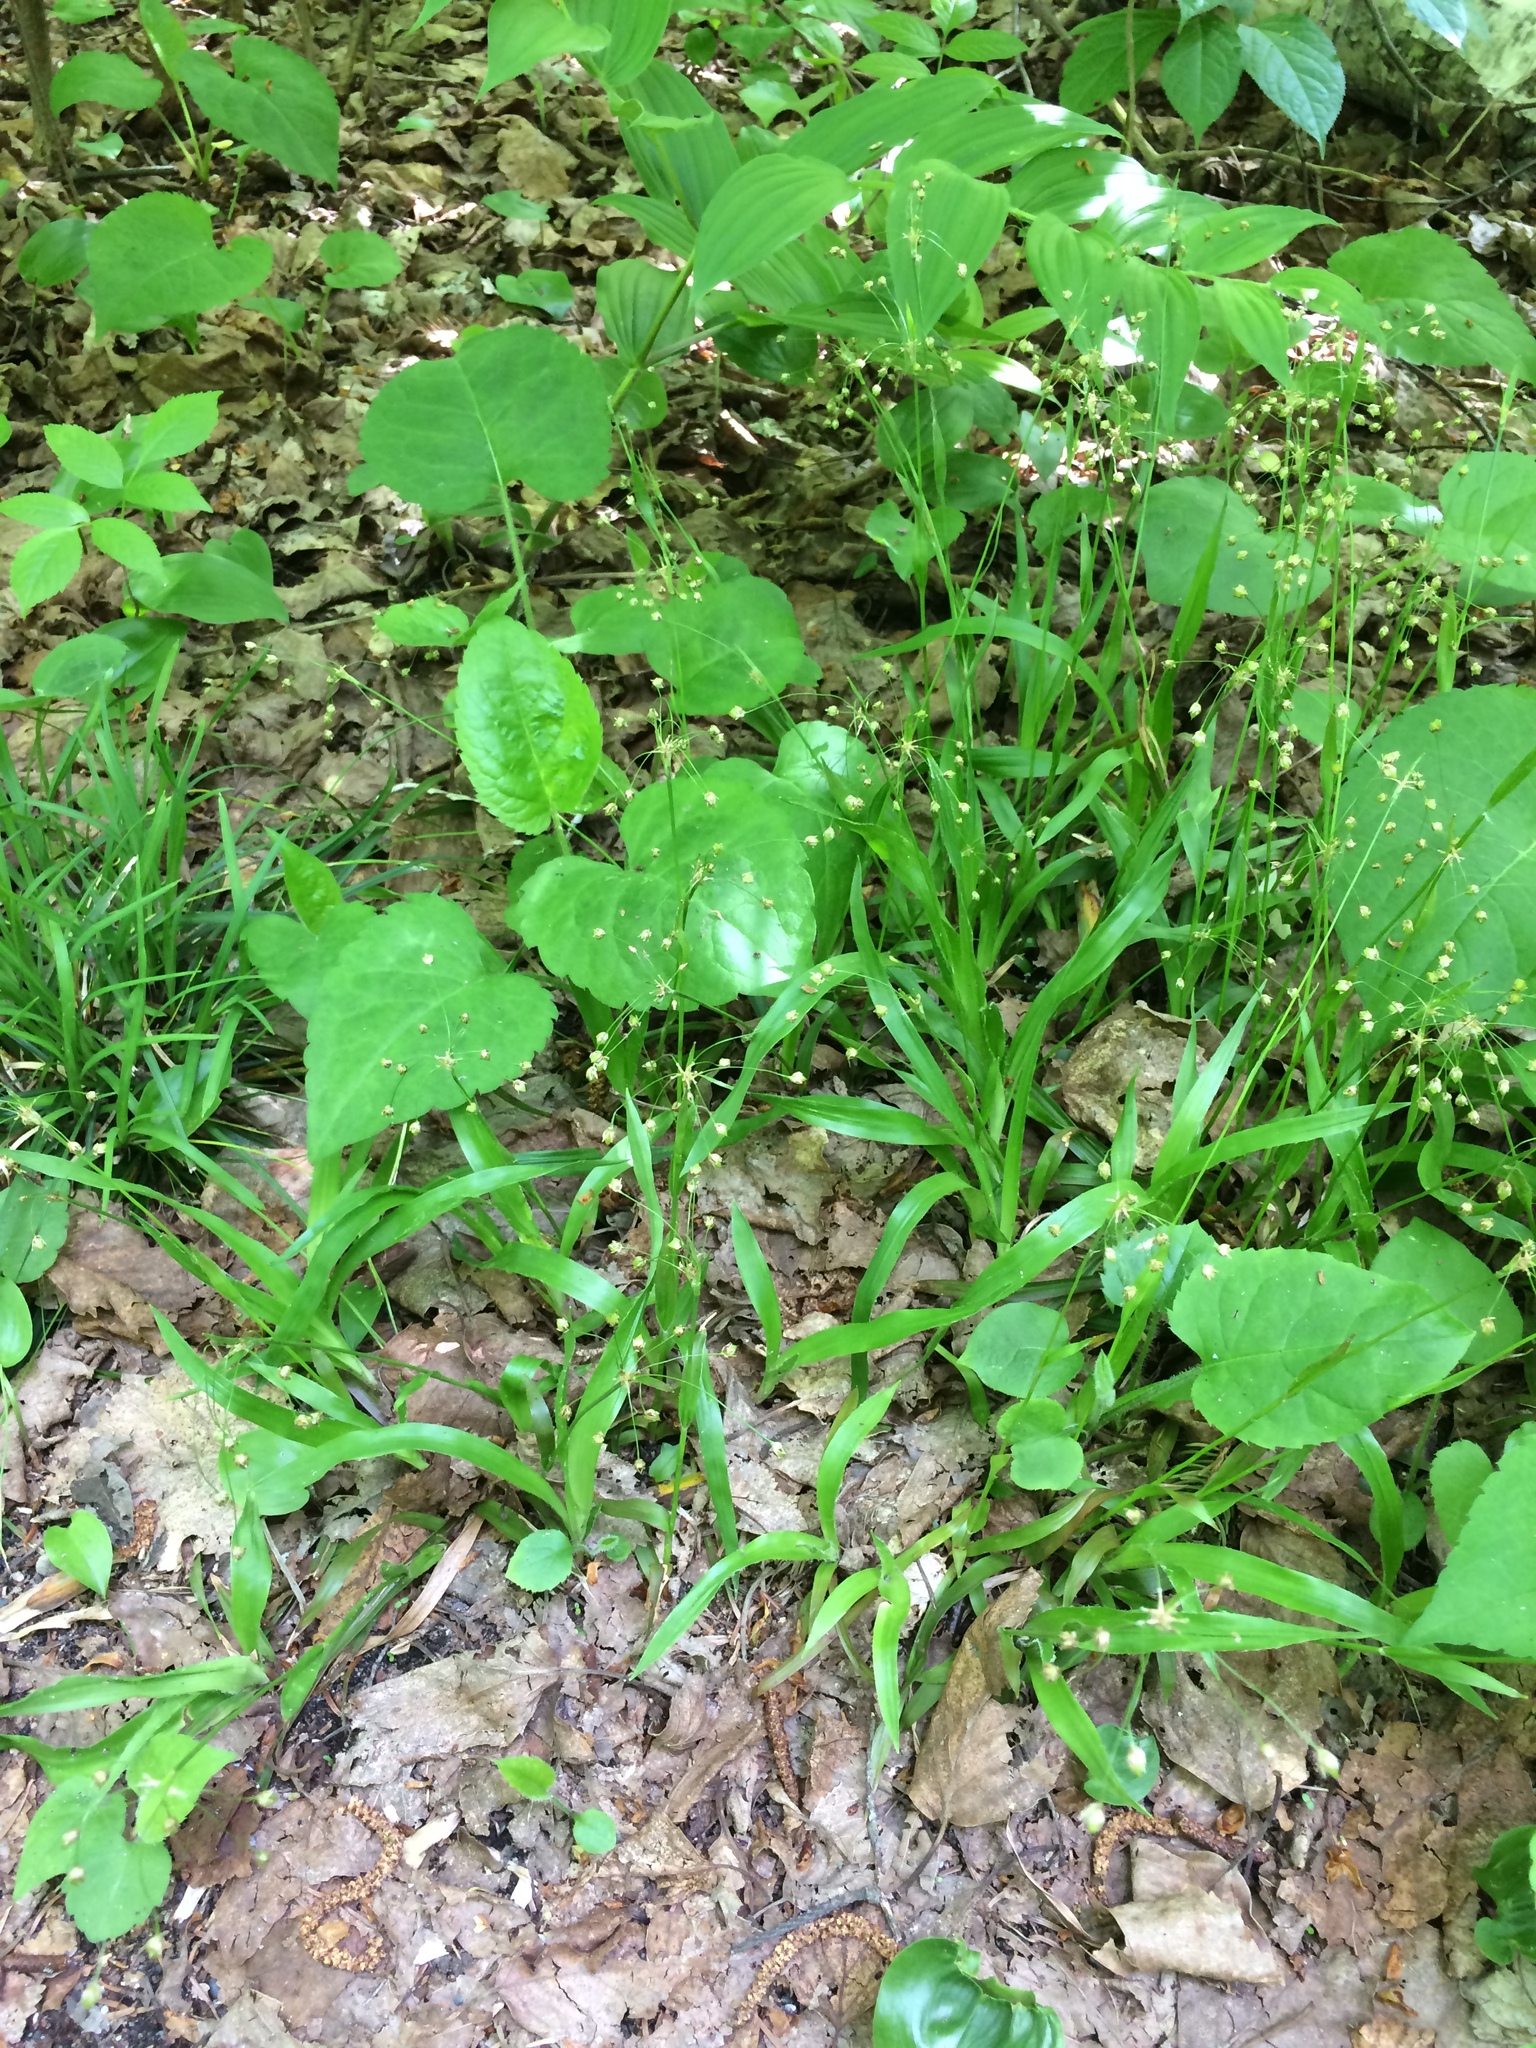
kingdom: Plantae
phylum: Tracheophyta
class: Magnoliopsida
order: Asterales
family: Asteraceae
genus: Eurybia
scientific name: Eurybia macrophylla
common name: Big-leaved aster
